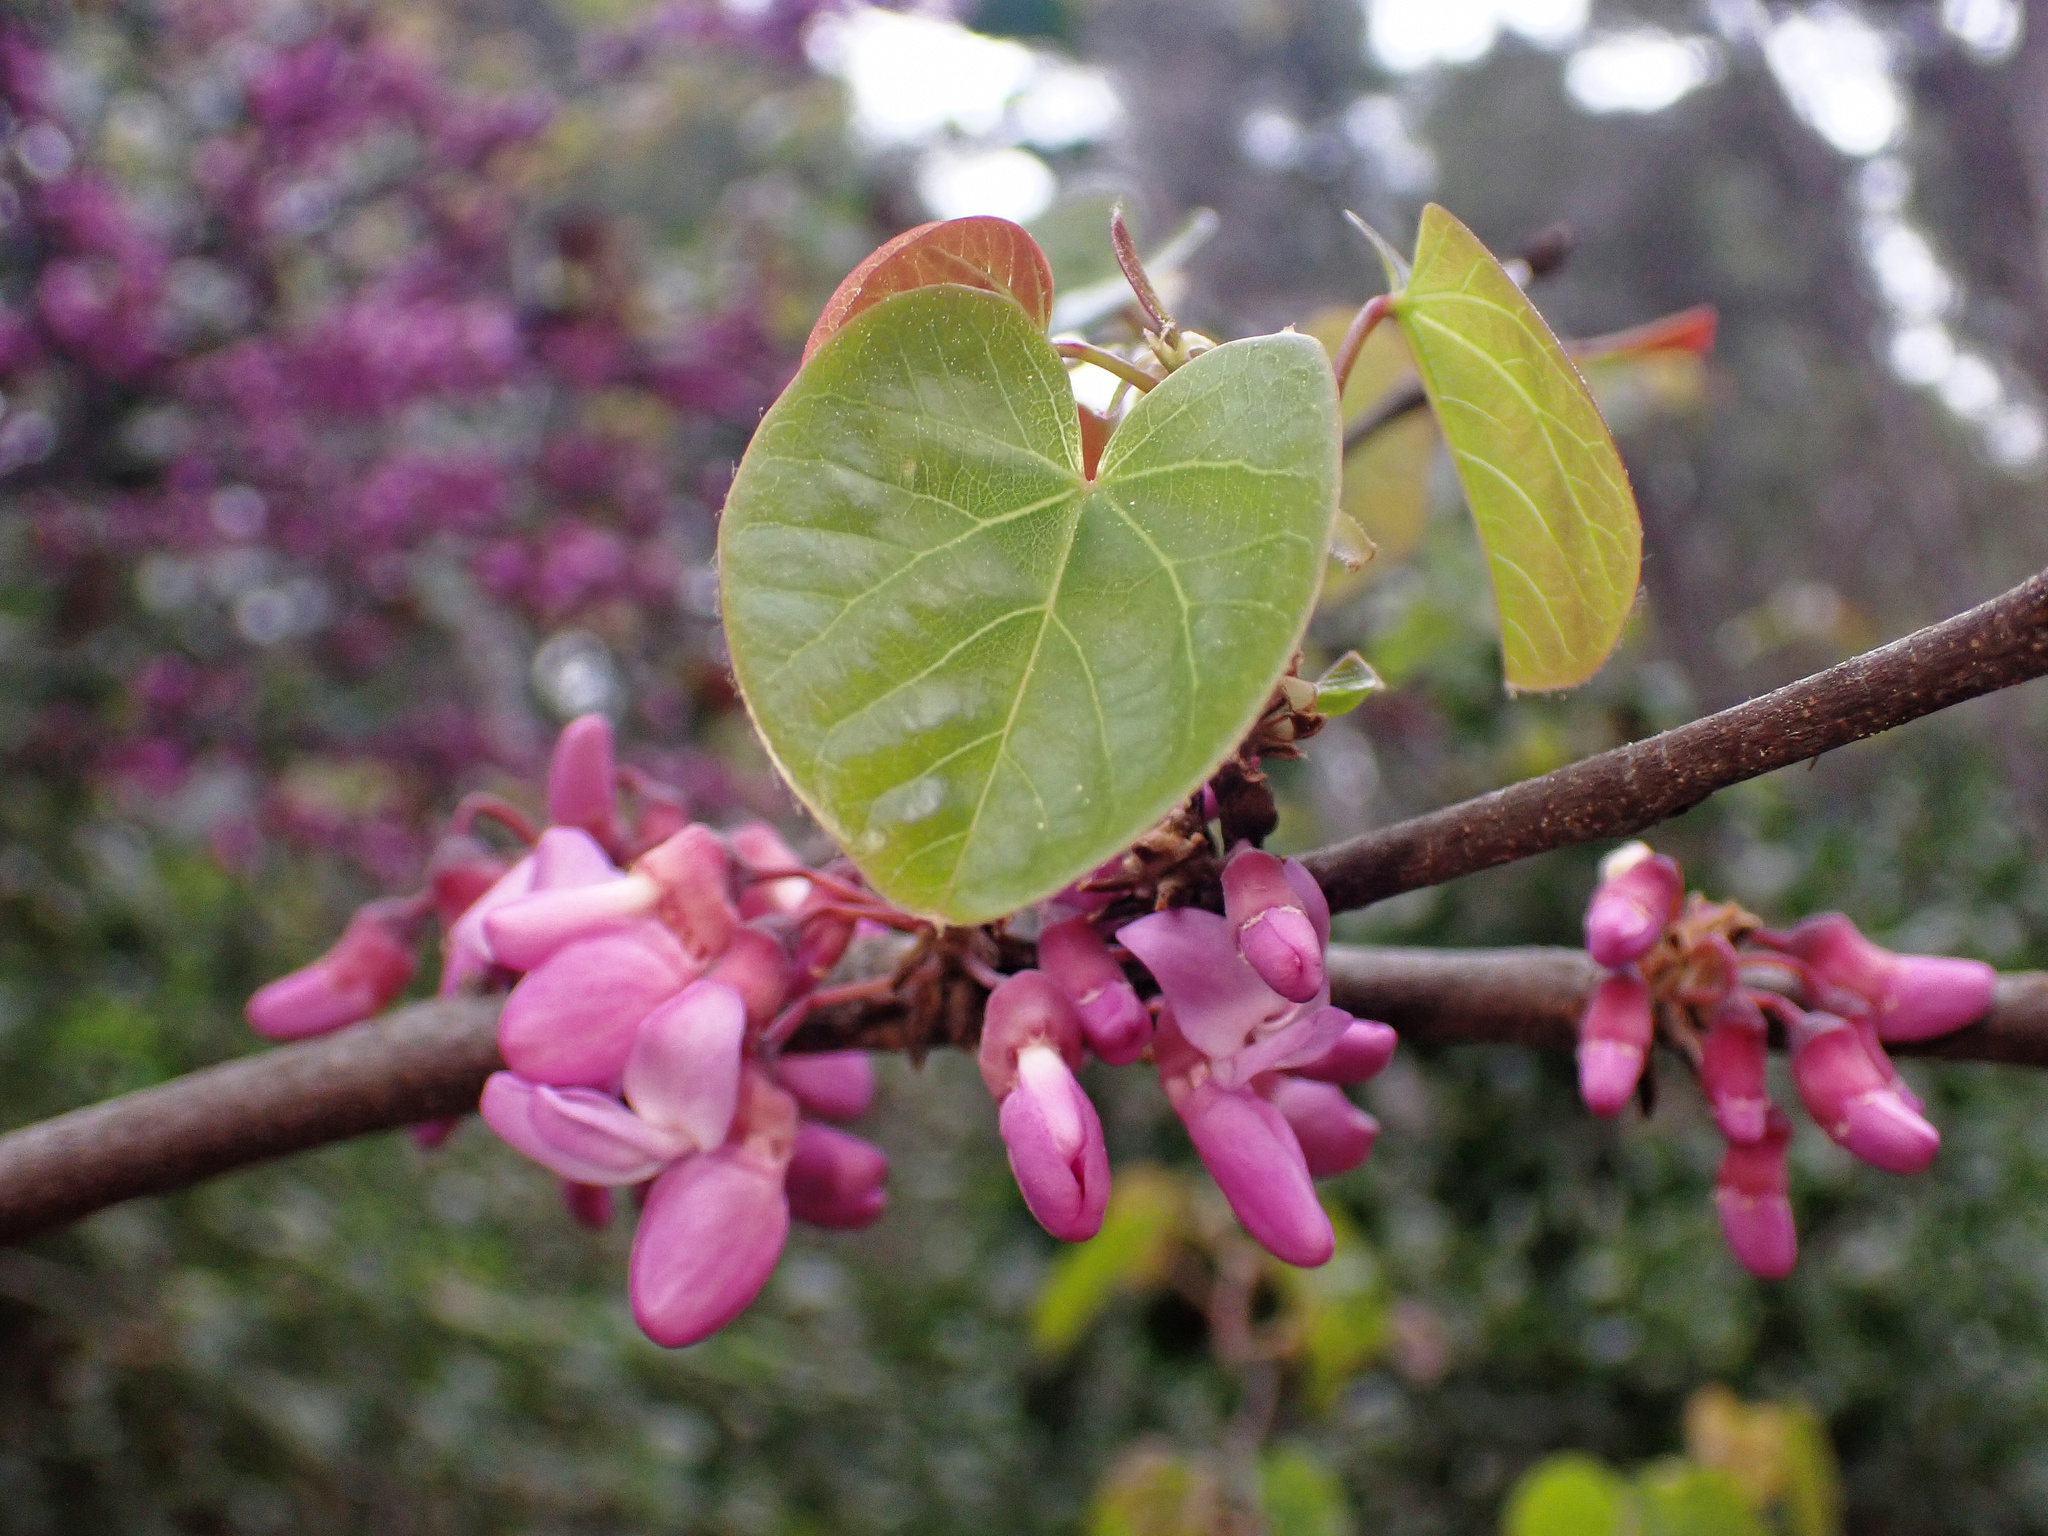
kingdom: Plantae
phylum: Tracheophyta
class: Magnoliopsida
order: Fabales
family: Fabaceae
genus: Cercis
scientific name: Cercis siliquastrum
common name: Judas tree
